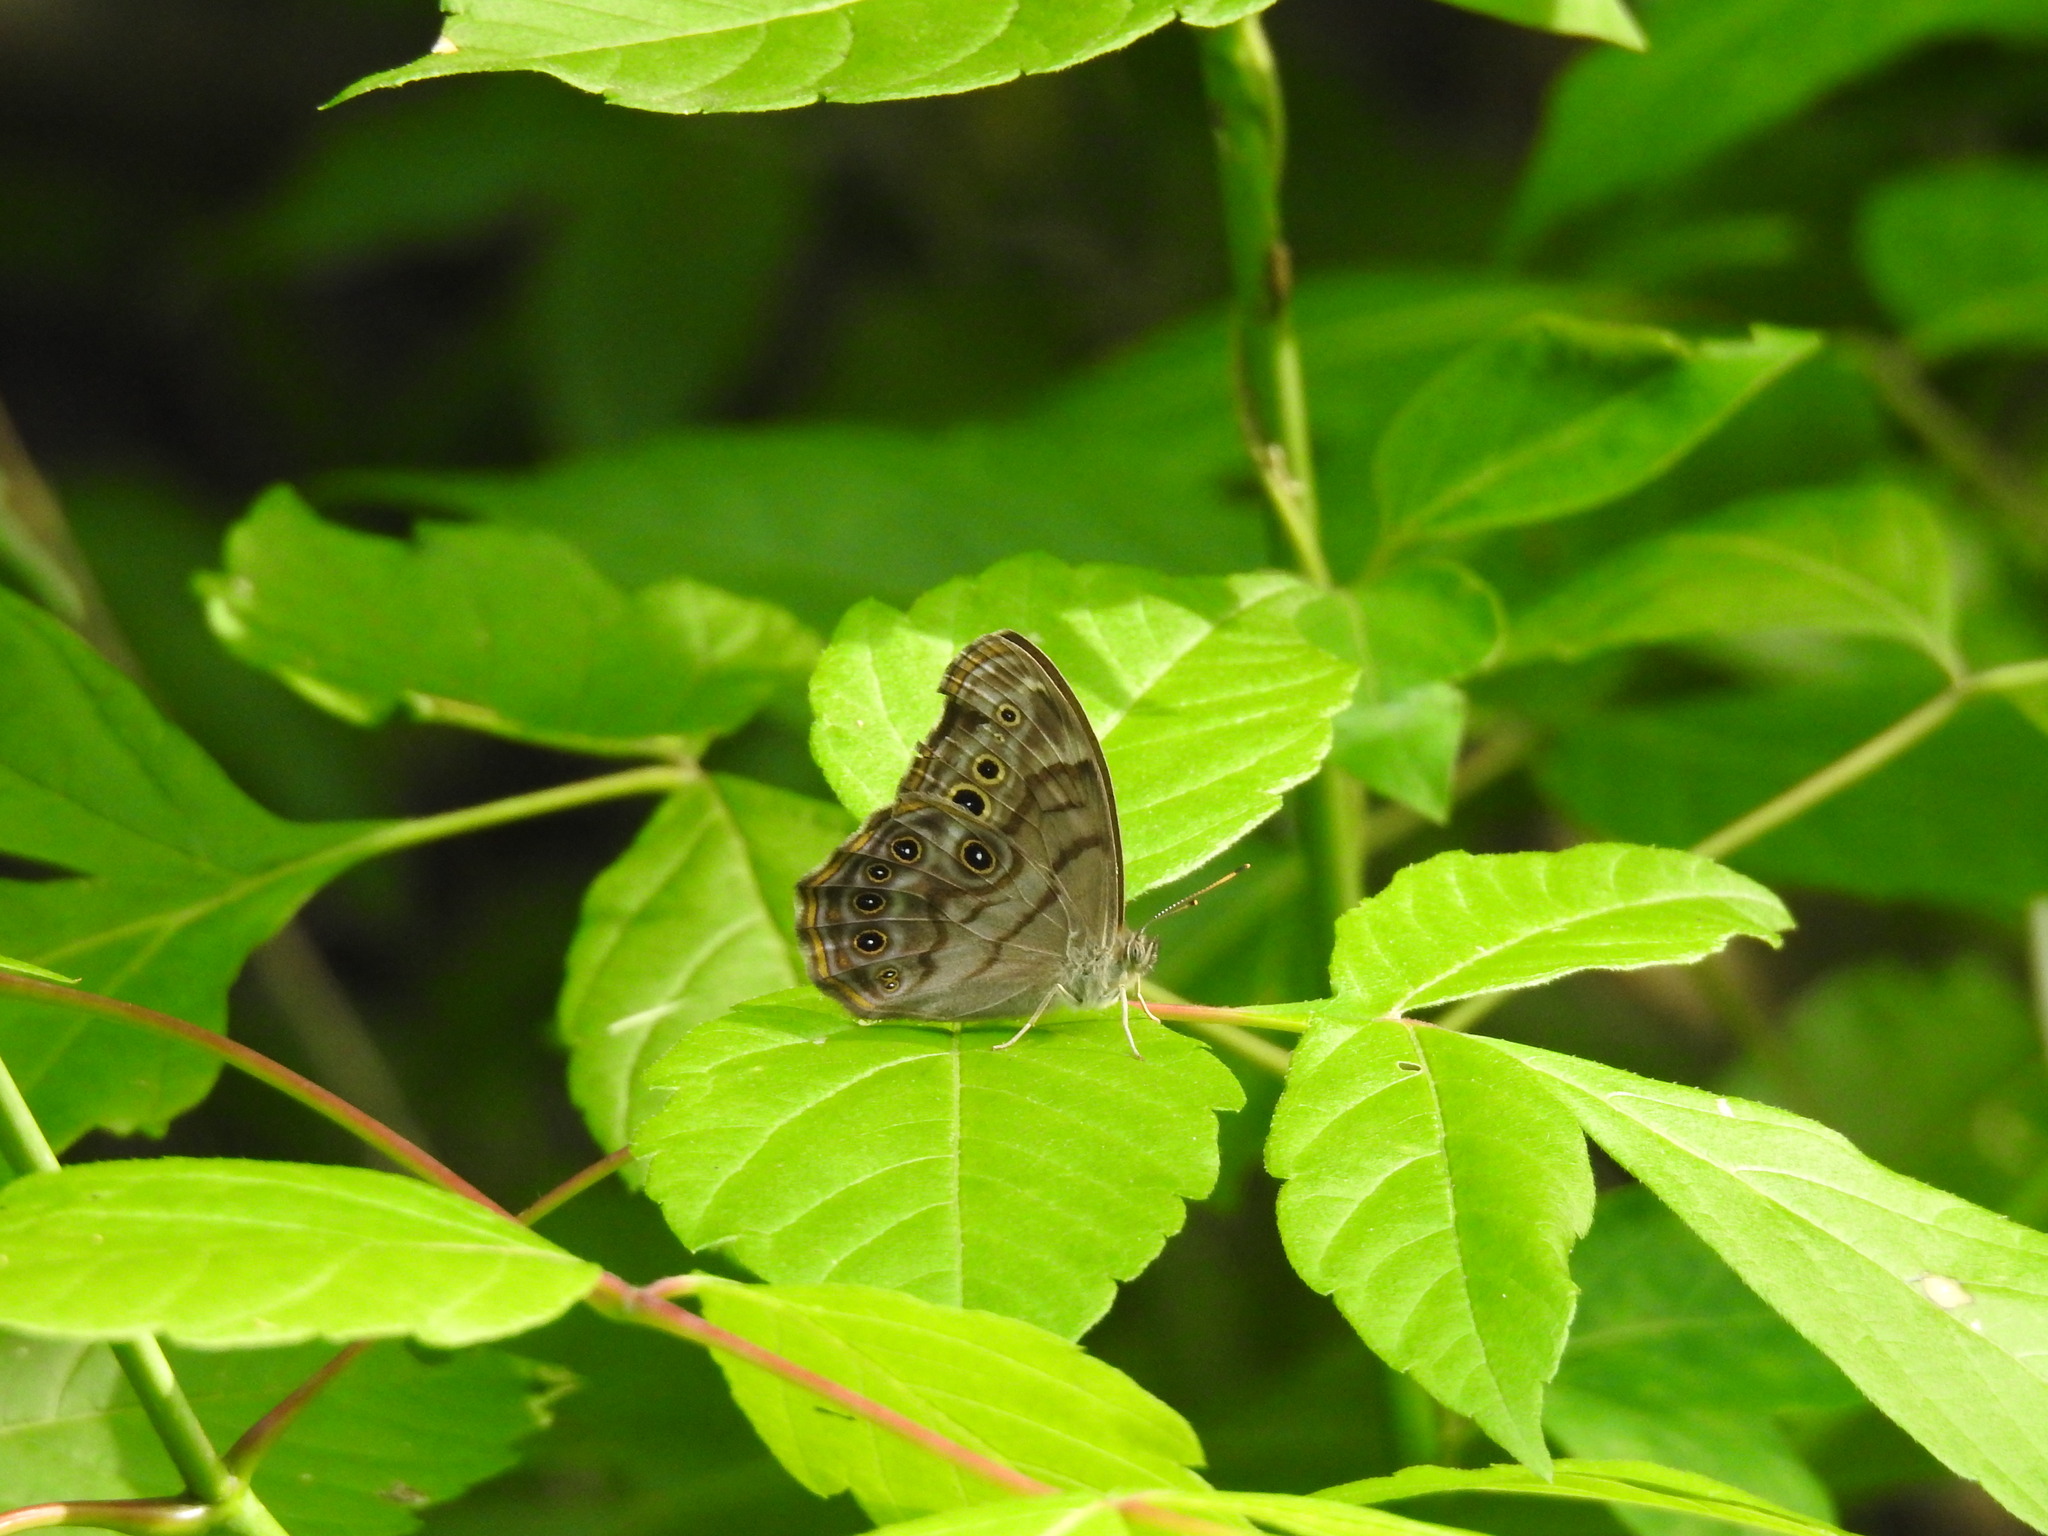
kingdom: Animalia
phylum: Arthropoda
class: Insecta
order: Lepidoptera
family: Nymphalidae
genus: Lethe
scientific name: Lethe anthedon
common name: Northern pearly-eye
